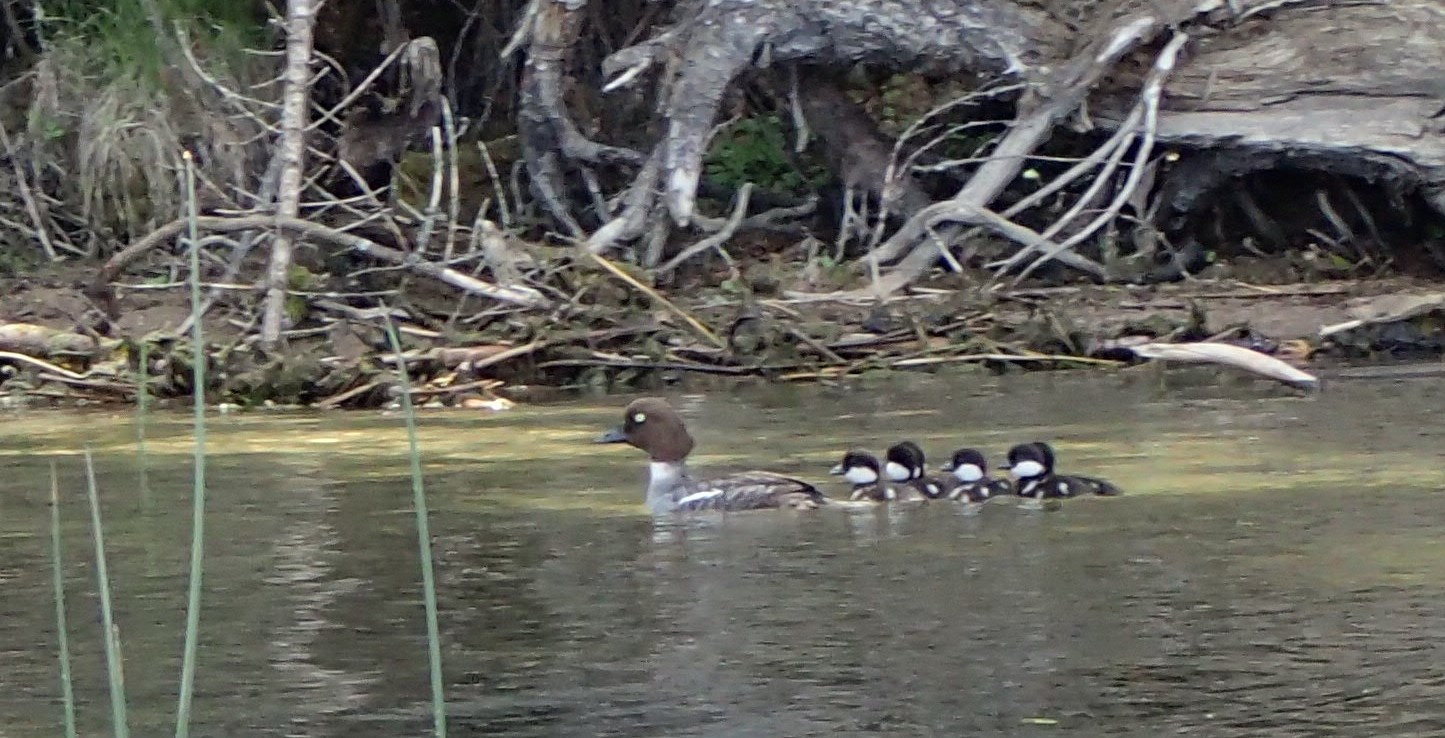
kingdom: Animalia
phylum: Chordata
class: Aves
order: Anseriformes
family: Anatidae
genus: Bucephala
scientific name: Bucephala clangula
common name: Common goldeneye
